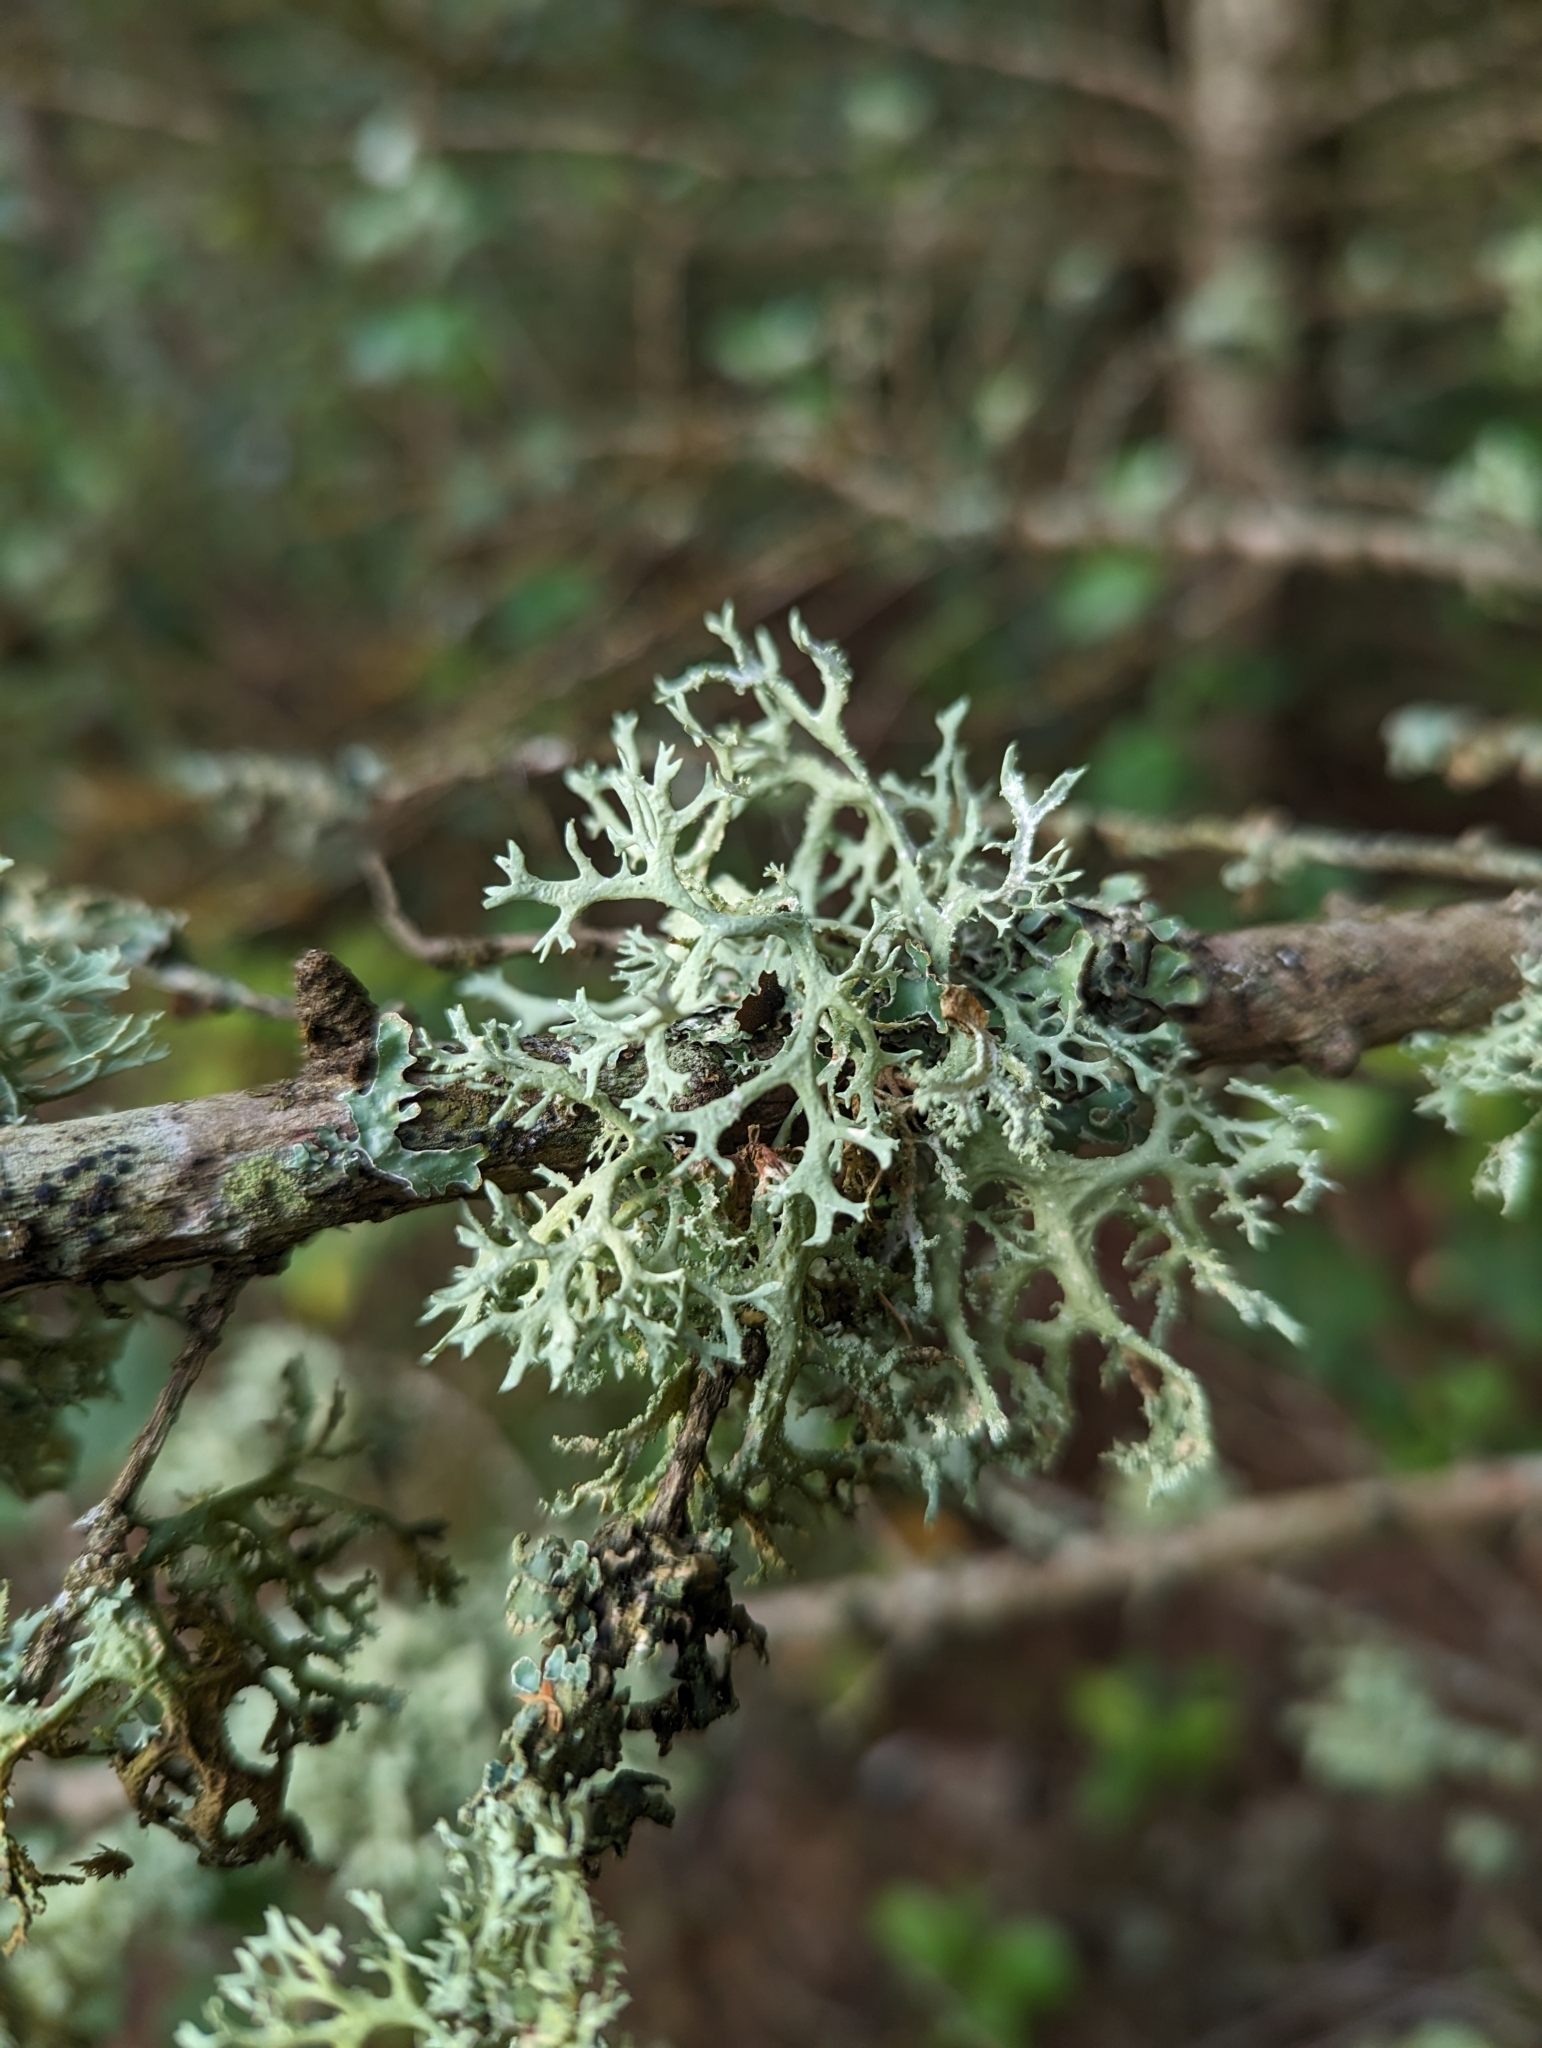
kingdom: Fungi
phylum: Ascomycota
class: Lecanoromycetes
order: Lecanorales
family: Parmeliaceae
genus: Evernia
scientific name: Evernia prunastri
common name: Oak moss
